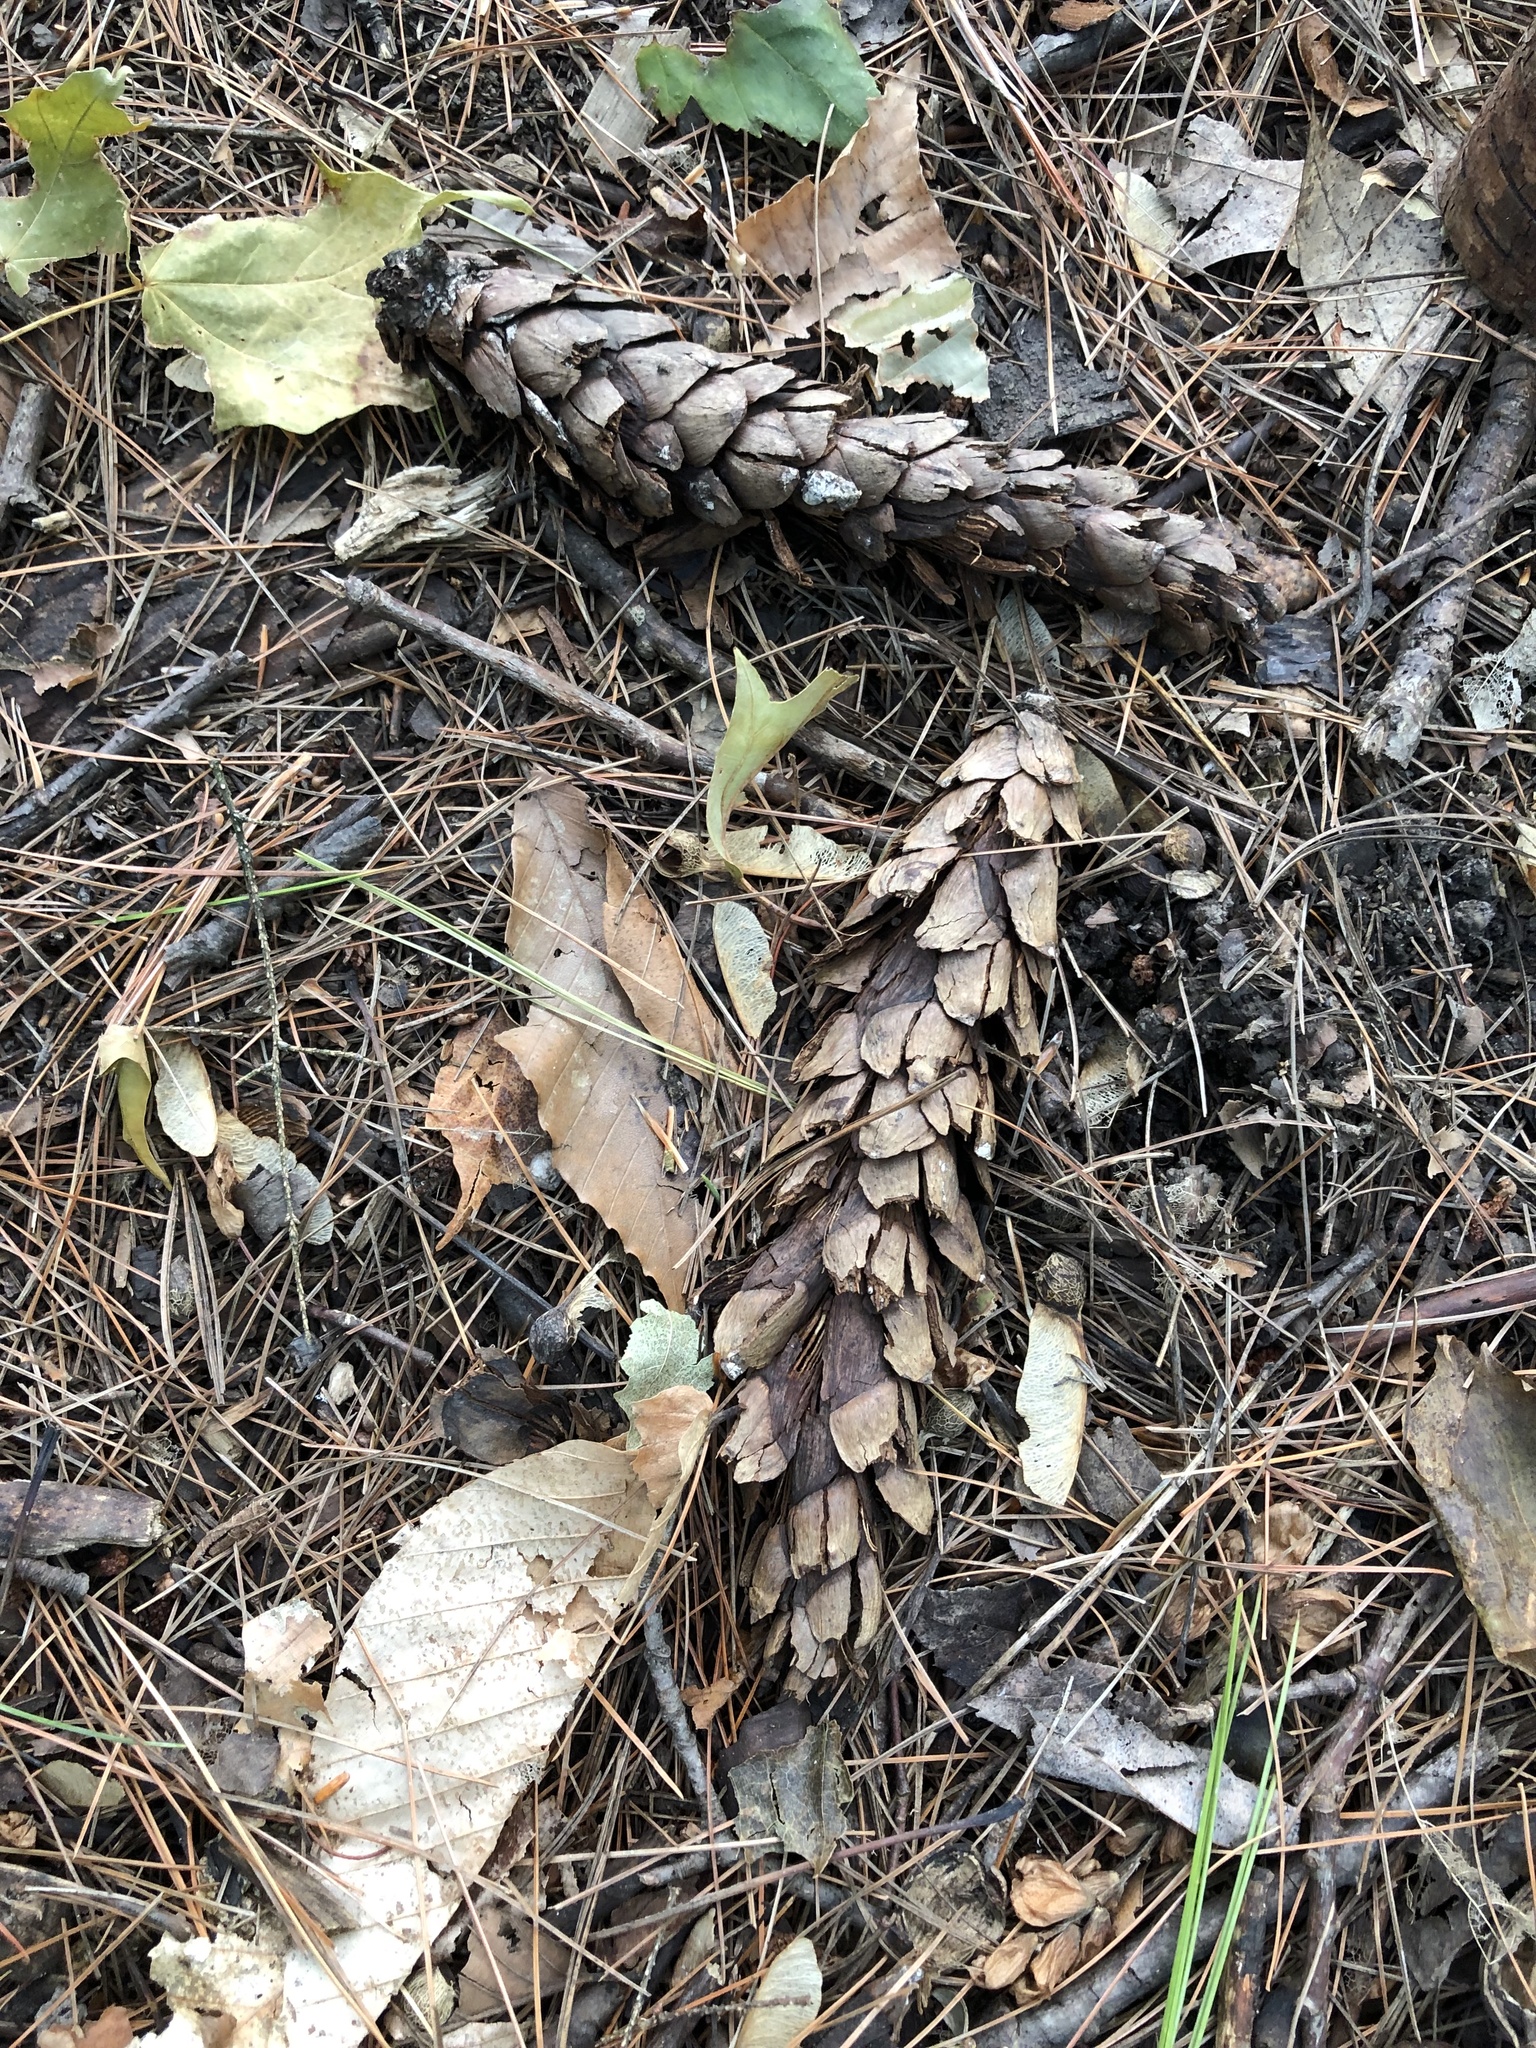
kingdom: Plantae
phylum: Tracheophyta
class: Pinopsida
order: Pinales
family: Pinaceae
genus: Pinus
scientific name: Pinus strobus
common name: Weymouth pine
